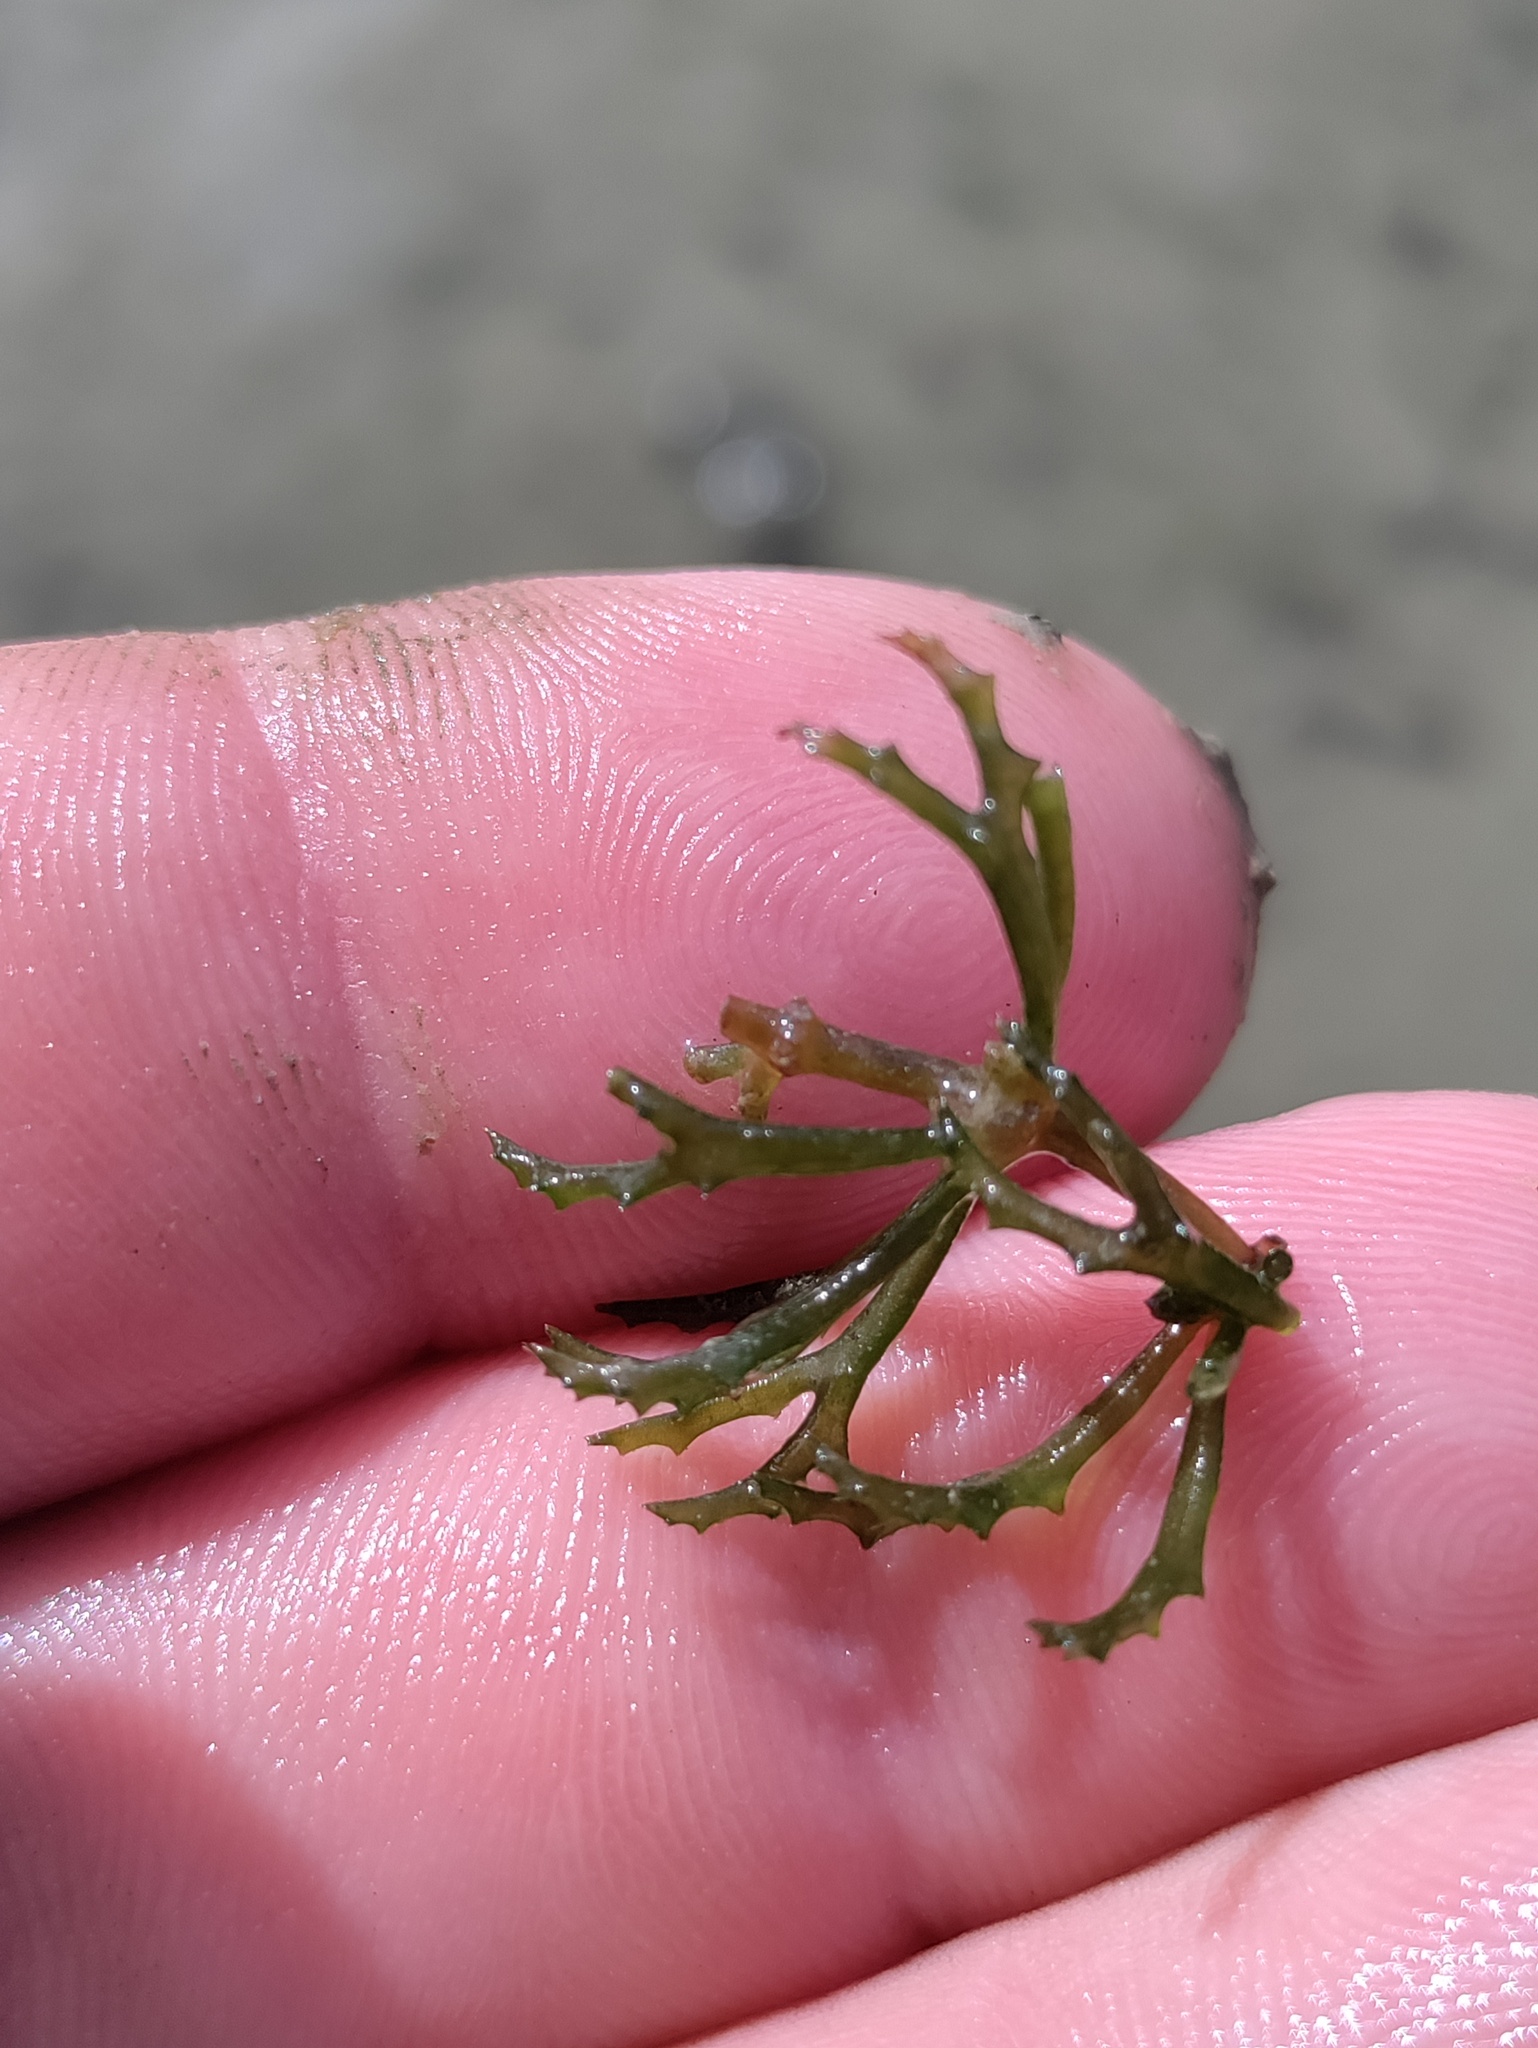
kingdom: Plantae
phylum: Tracheophyta
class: Magnoliopsida
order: Ceratophyllales
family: Ceratophyllaceae
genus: Ceratophyllum
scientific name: Ceratophyllum demersum
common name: Rigid hornwort
